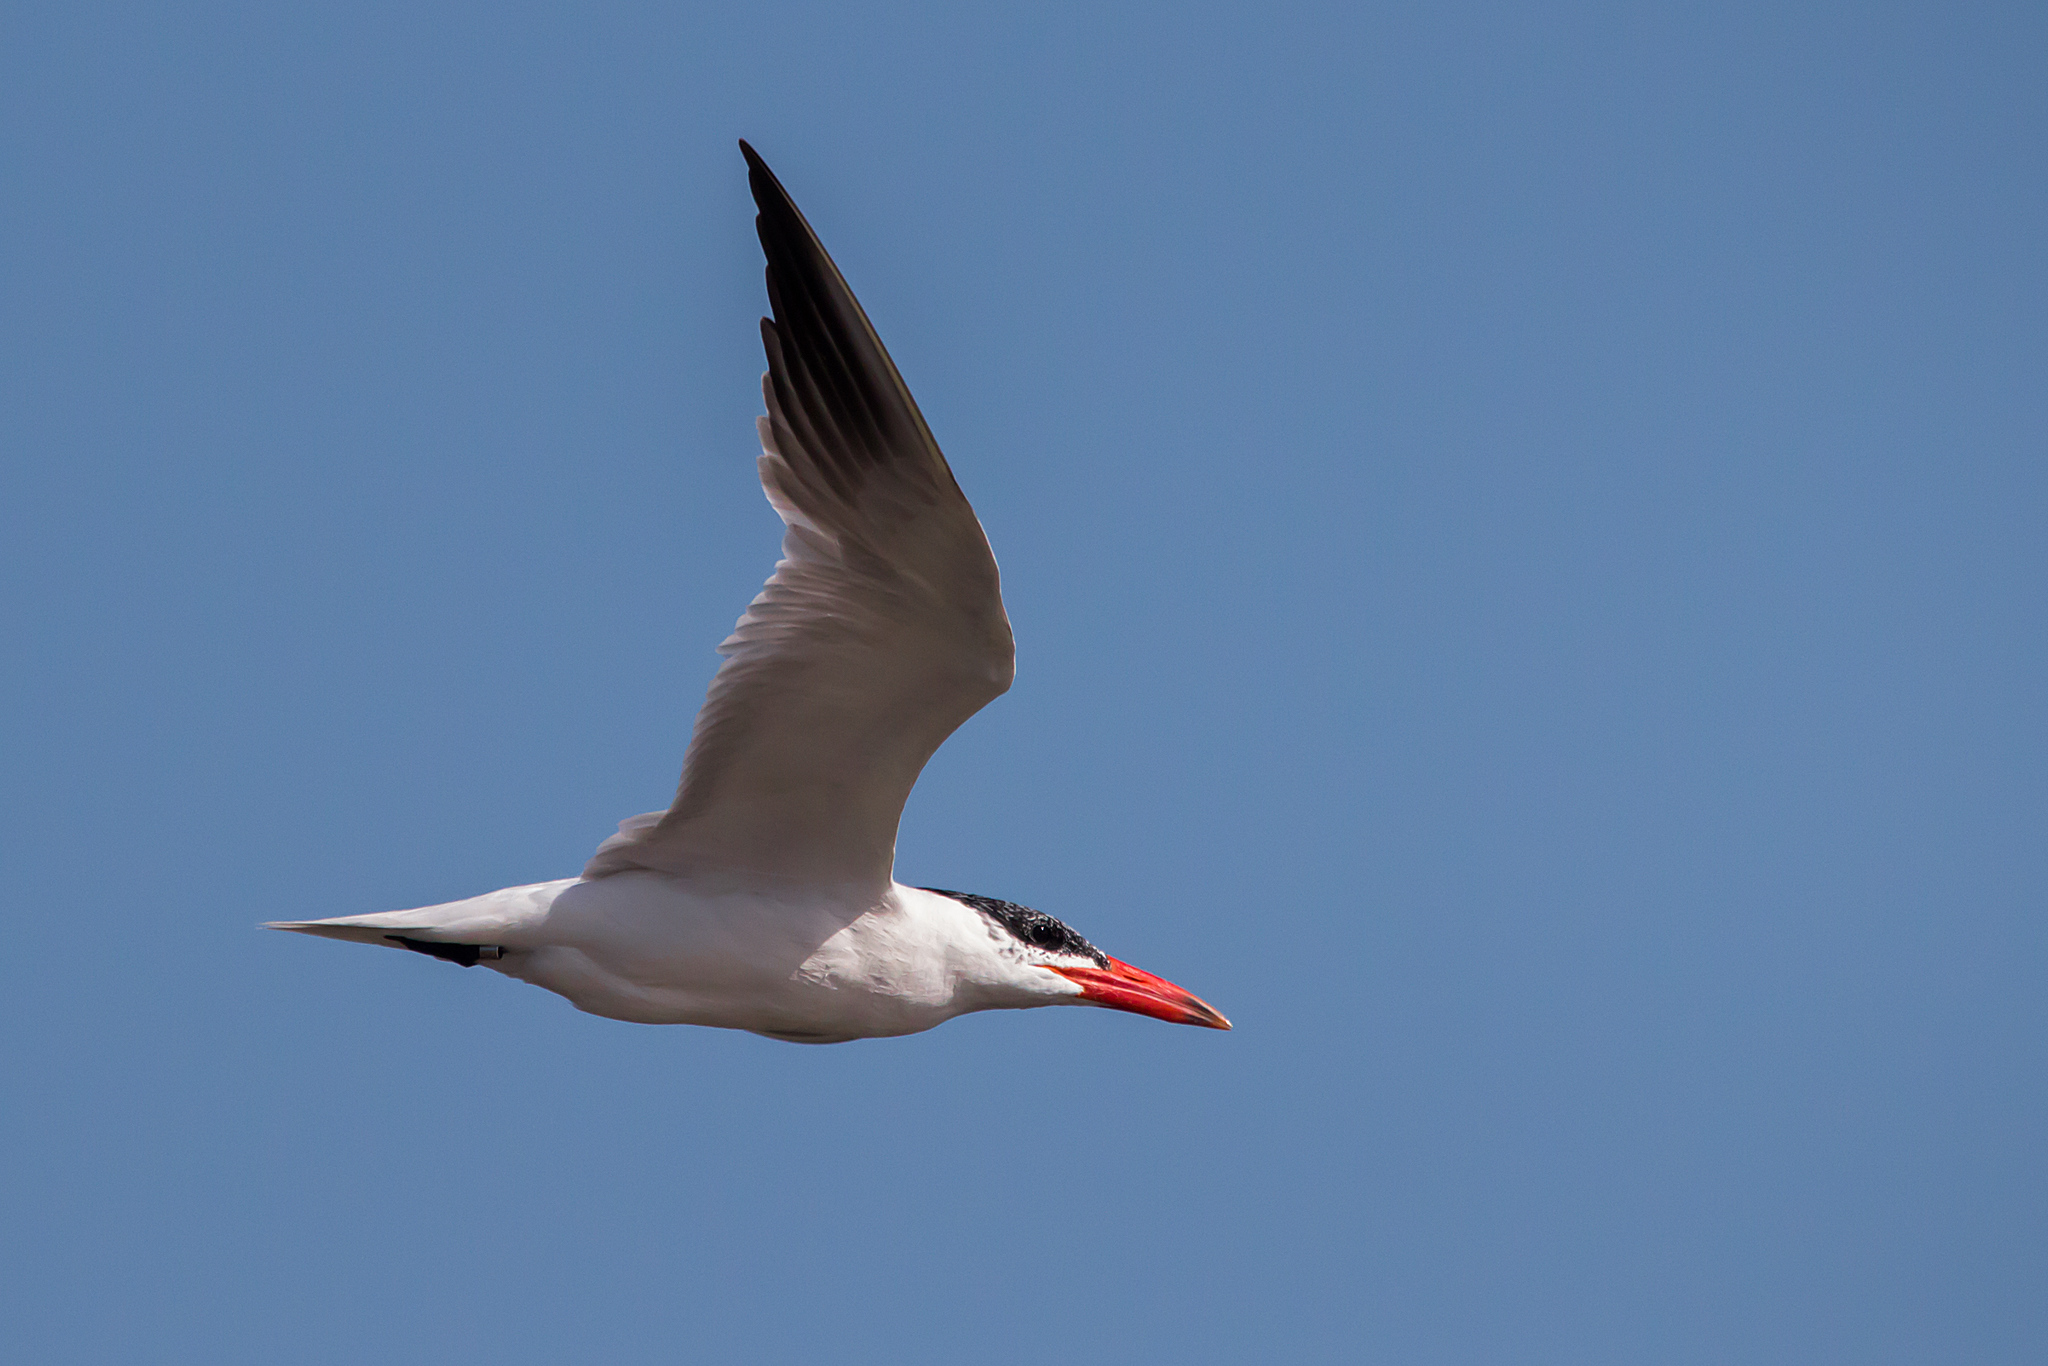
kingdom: Animalia
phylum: Chordata
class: Aves
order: Charadriiformes
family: Laridae
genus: Hydroprogne
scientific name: Hydroprogne caspia
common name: Caspian tern
